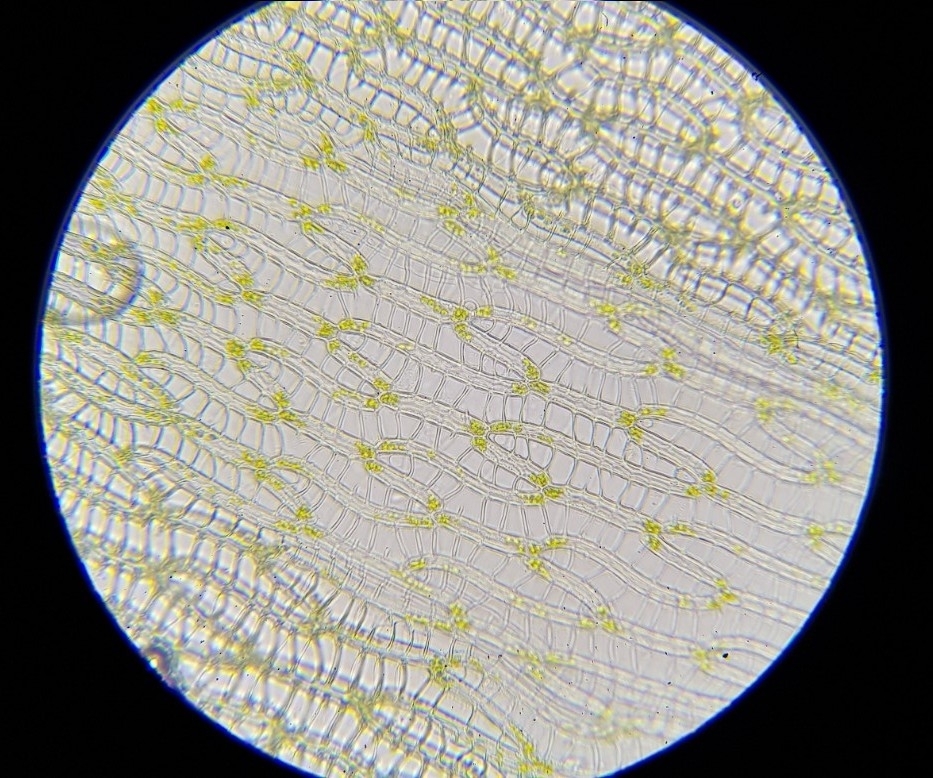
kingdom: Plantae
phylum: Bryophyta
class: Sphagnopsida
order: Sphagnales
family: Sphagnaceae
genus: Sphagnum
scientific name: Sphagnum flexuosum
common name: Flexible peat moss
